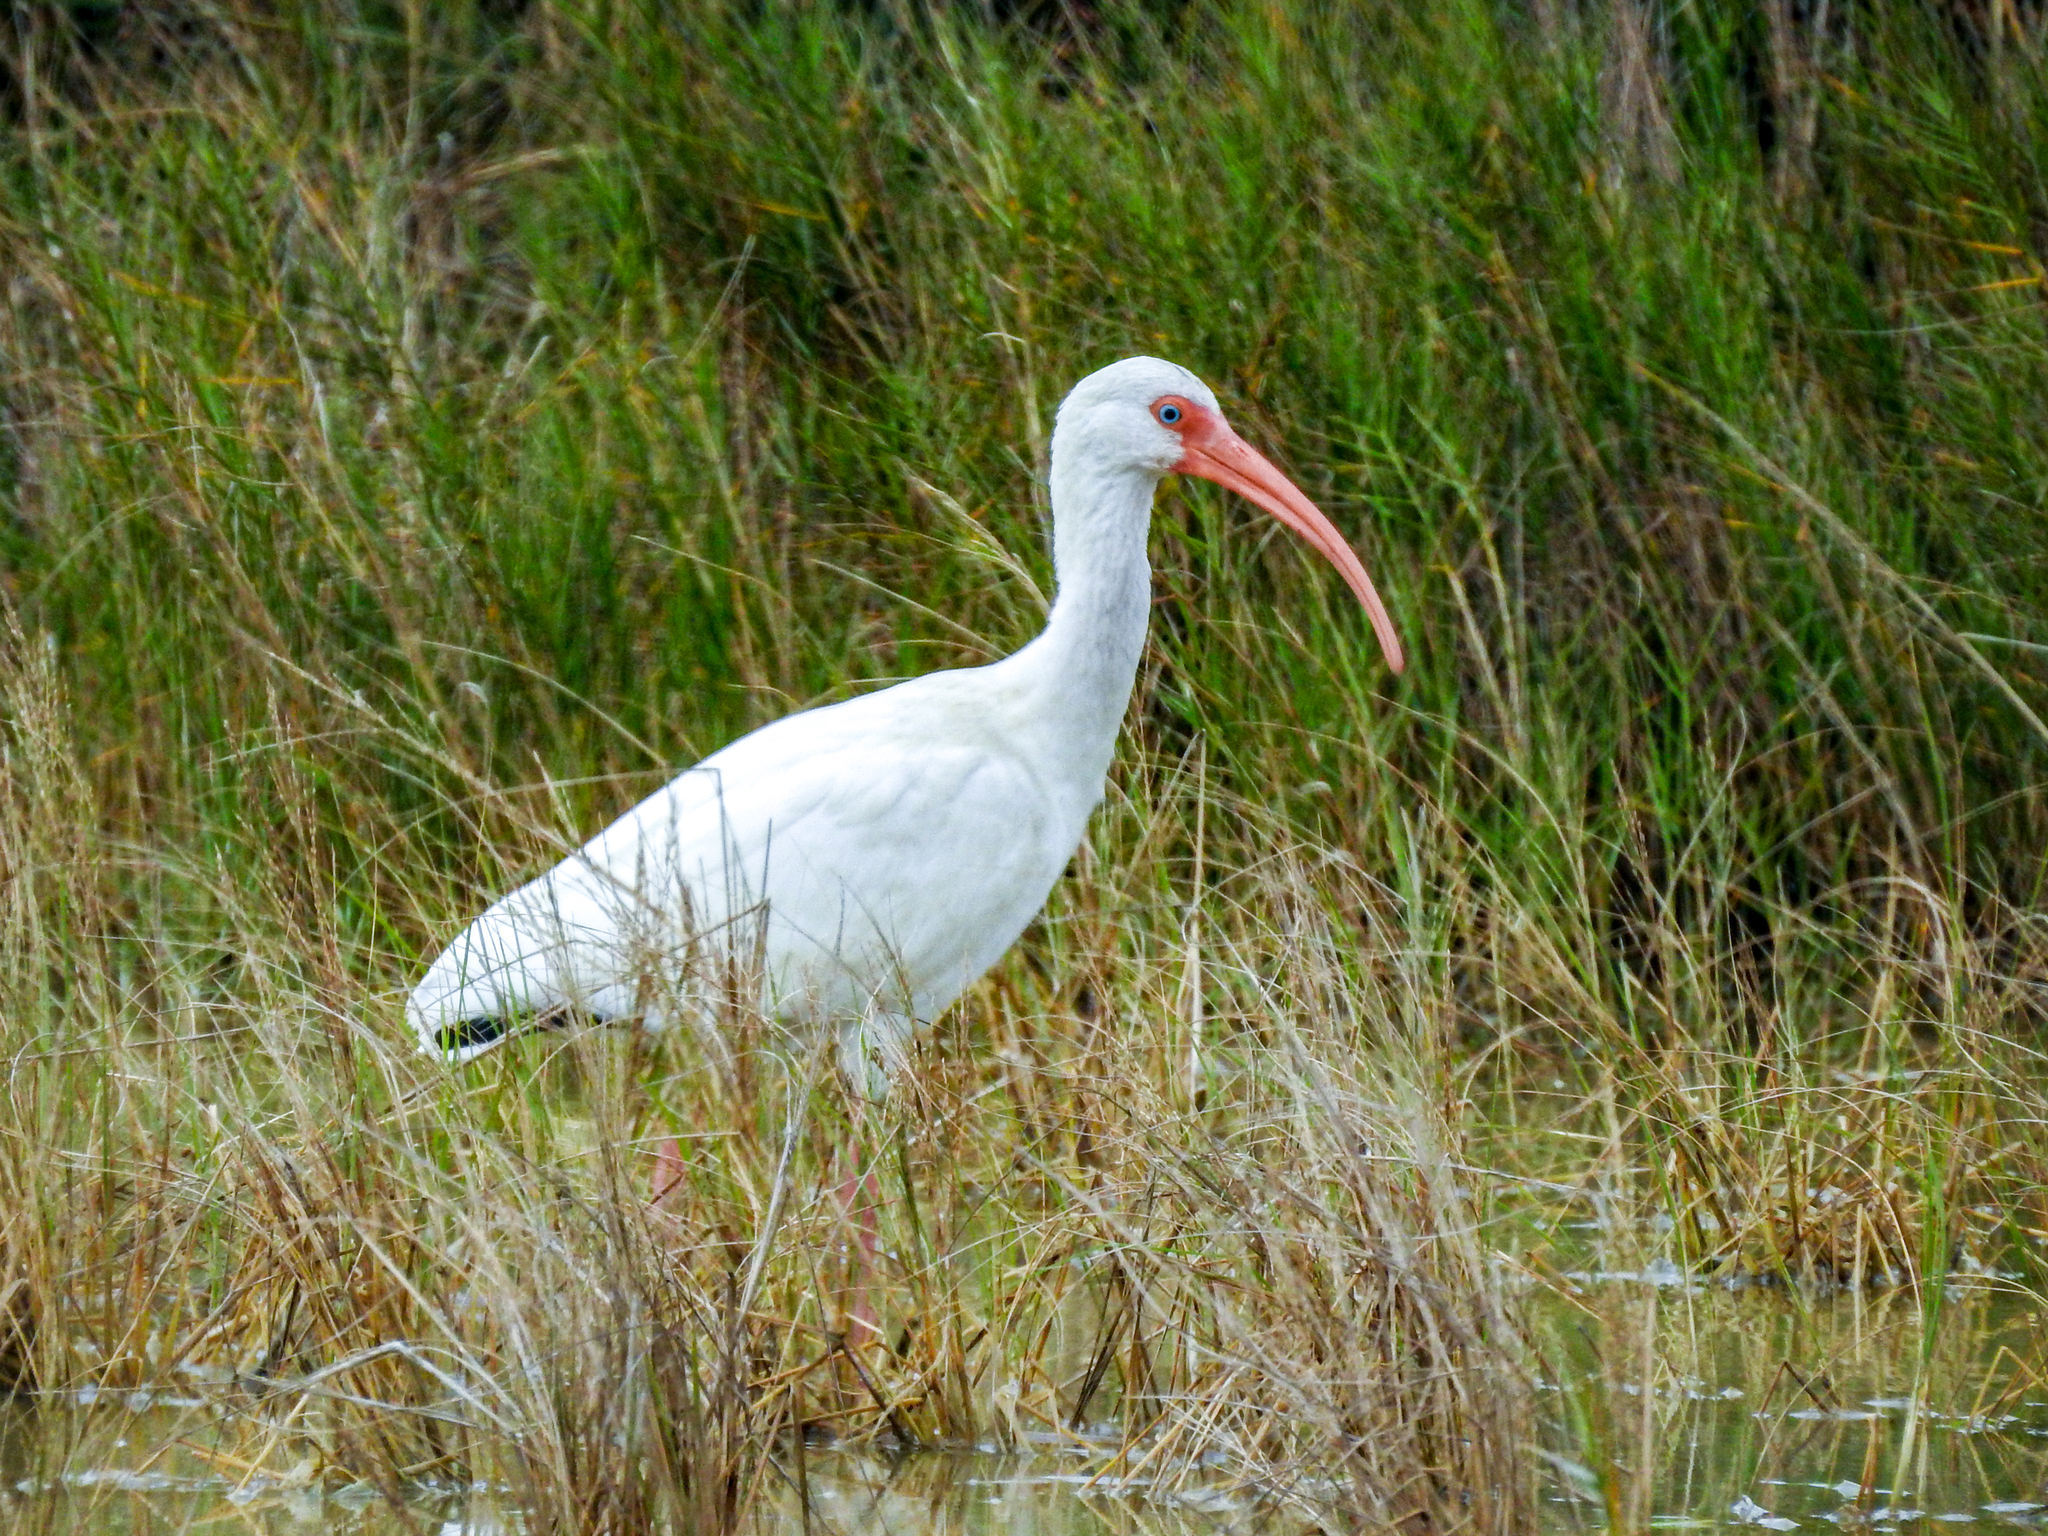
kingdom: Animalia
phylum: Chordata
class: Aves
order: Pelecaniformes
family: Threskiornithidae
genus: Eudocimus
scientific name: Eudocimus albus
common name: White ibis
